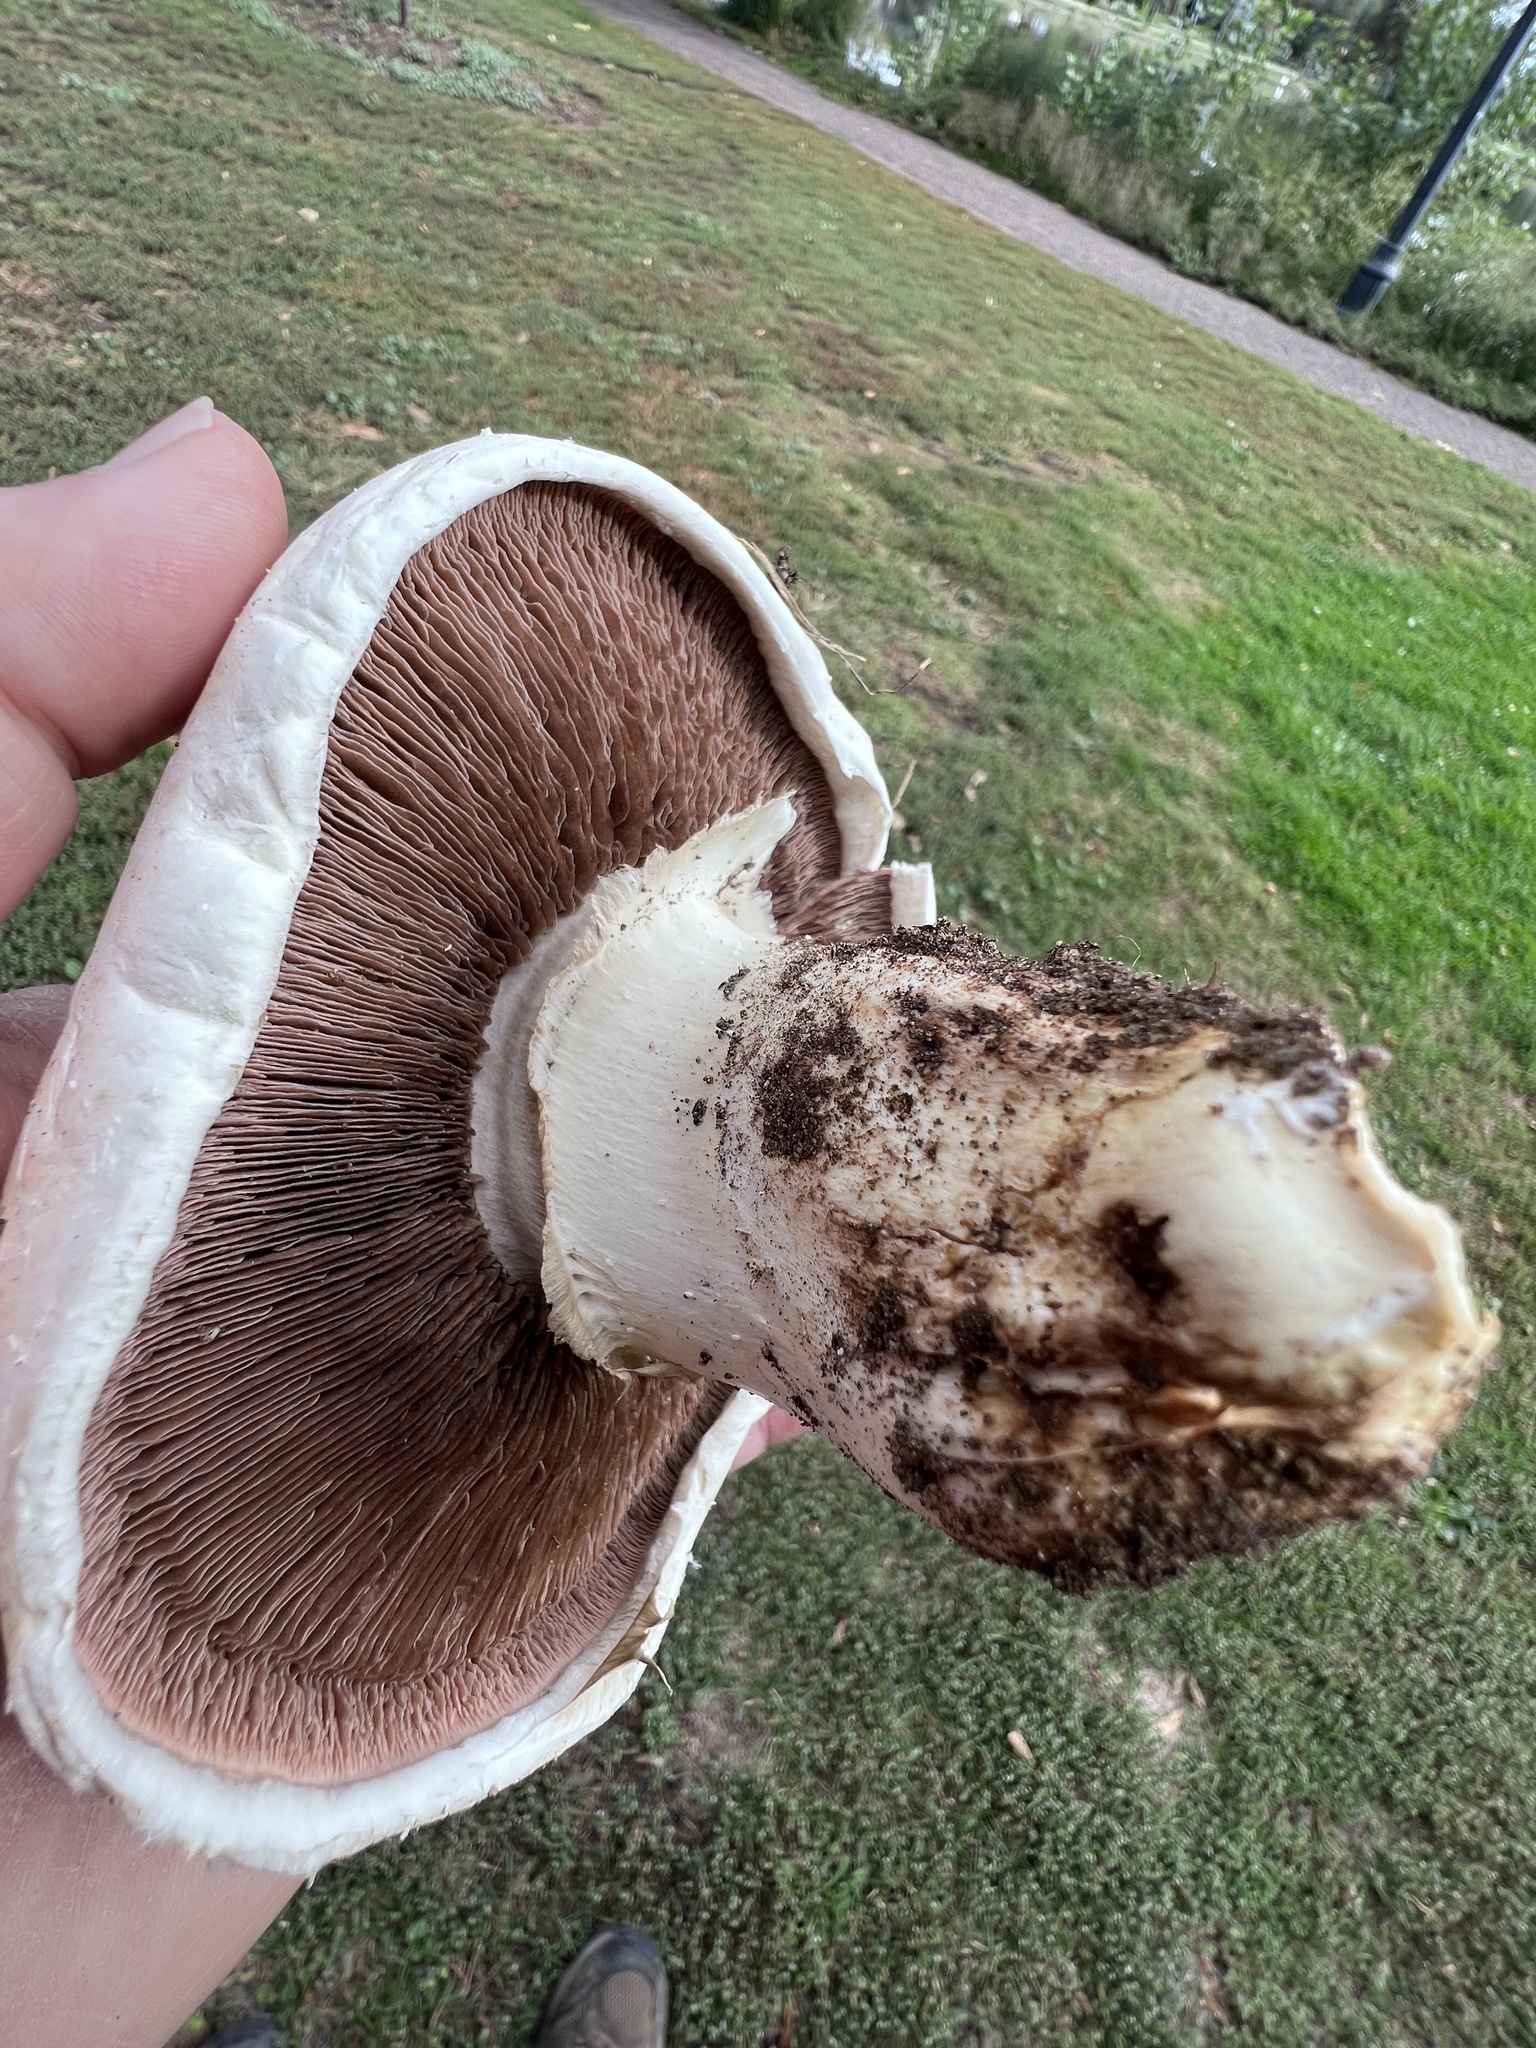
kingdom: Fungi
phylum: Basidiomycota
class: Agaricomycetes
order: Agaricales
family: Agaricaceae
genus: Agaricus
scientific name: Agaricus bernardii
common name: Salty mushroom
